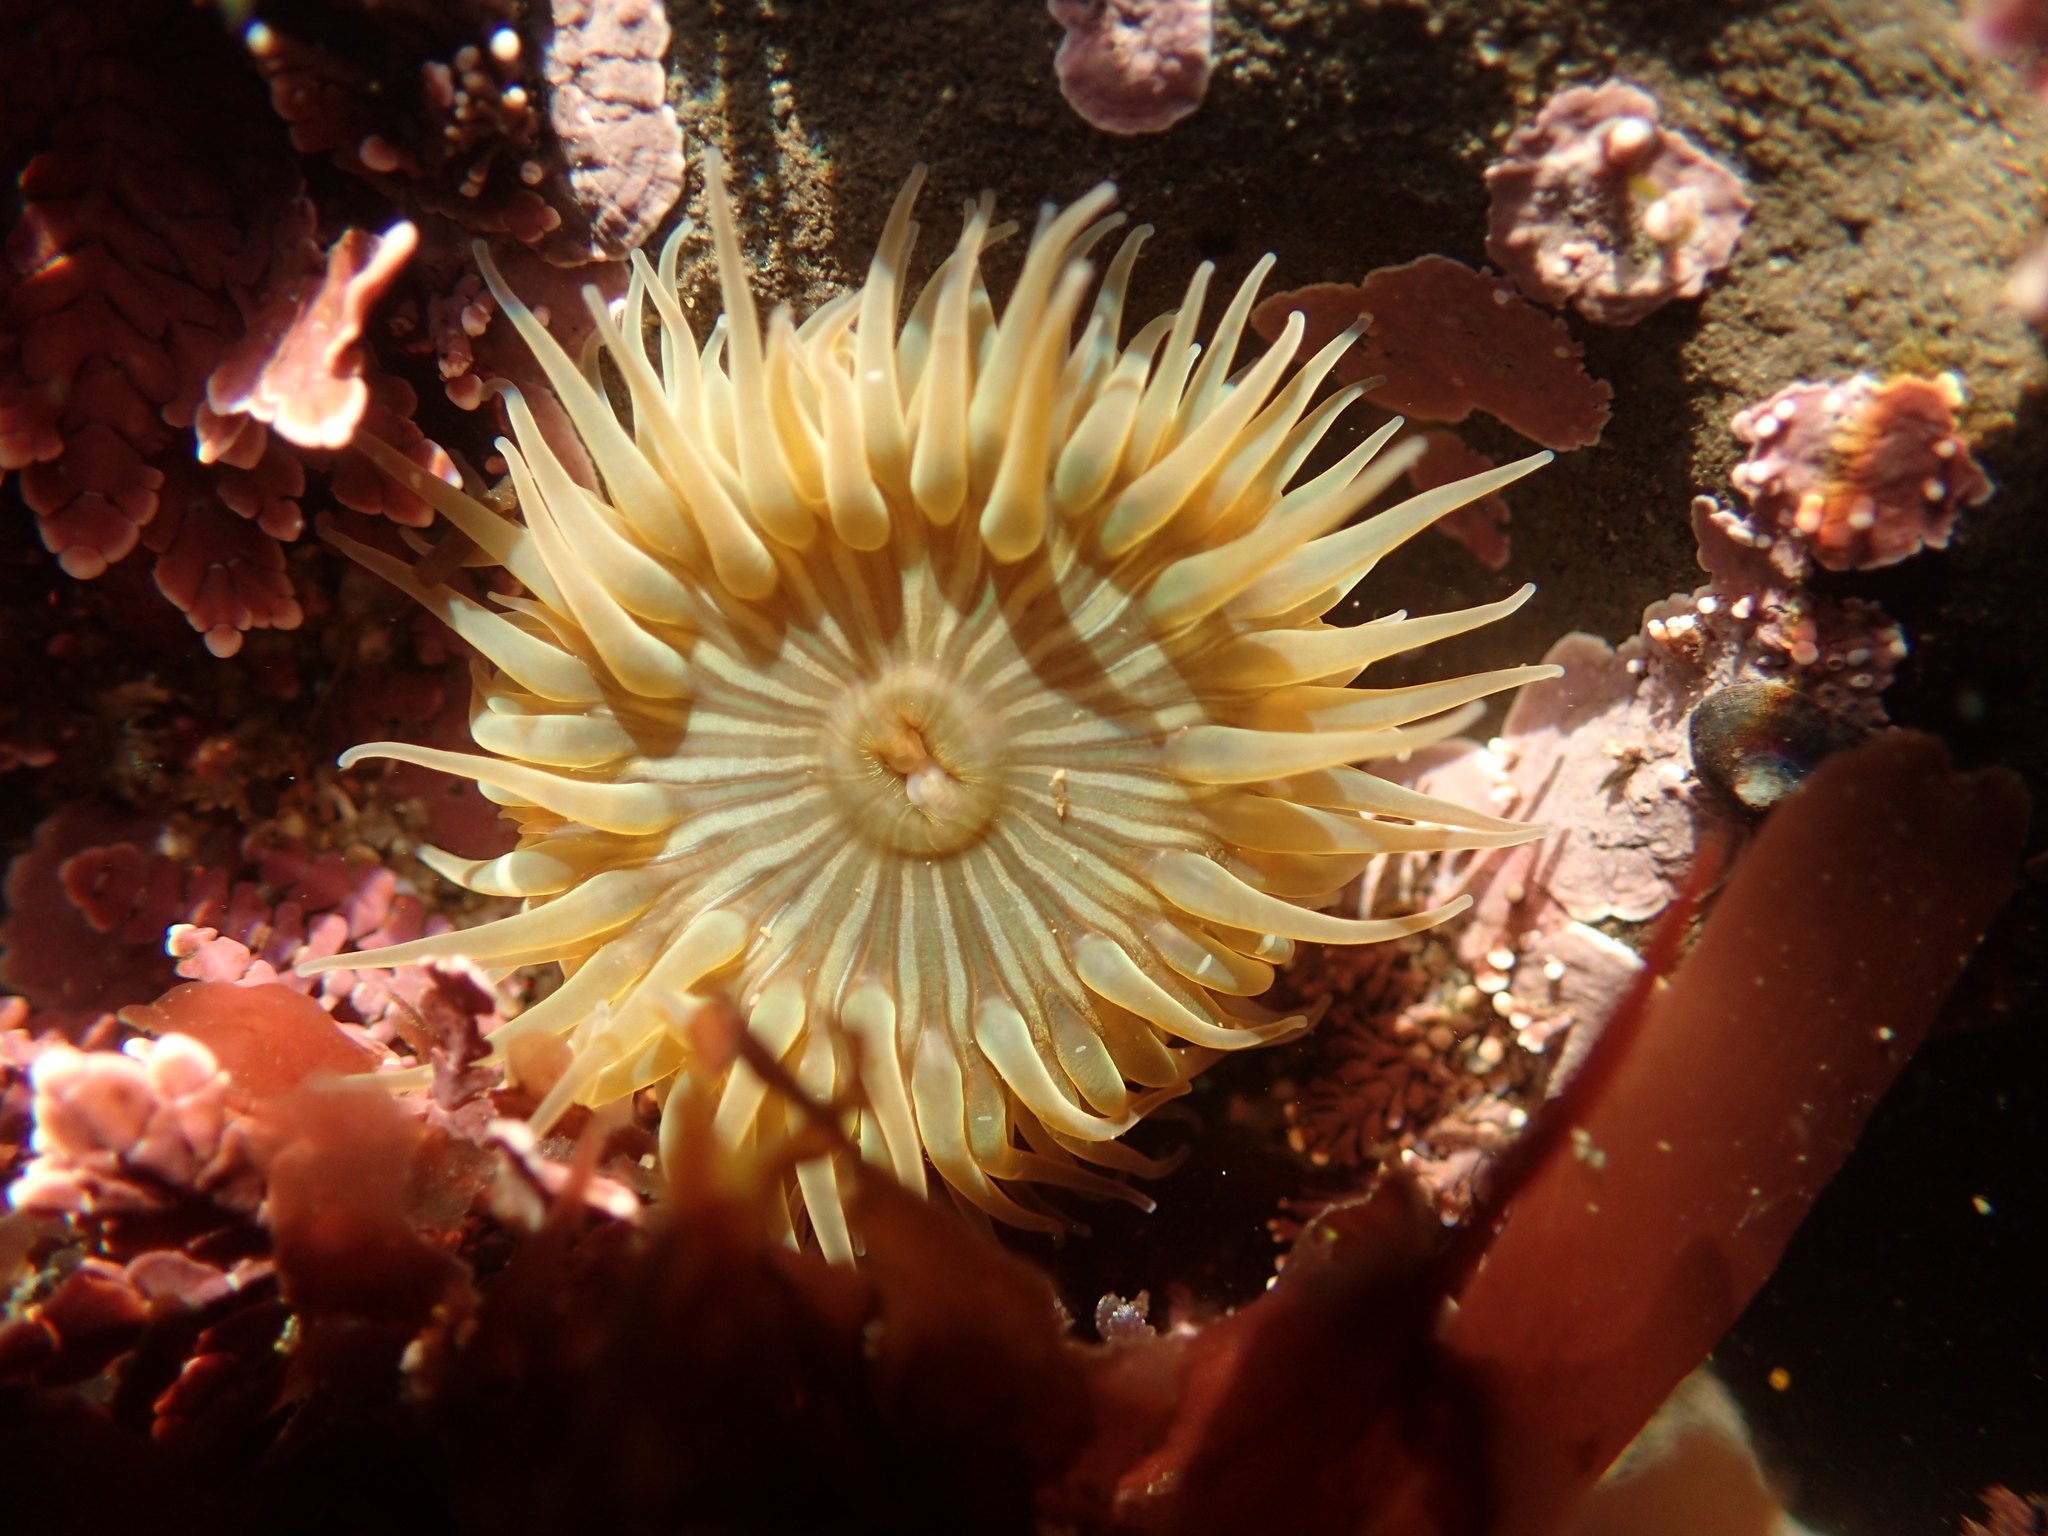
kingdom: Animalia
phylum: Cnidaria
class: Anthozoa
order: Actiniaria
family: Actiniidae
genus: Anthopleura
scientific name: Anthopleura sola
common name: Sun anemone
